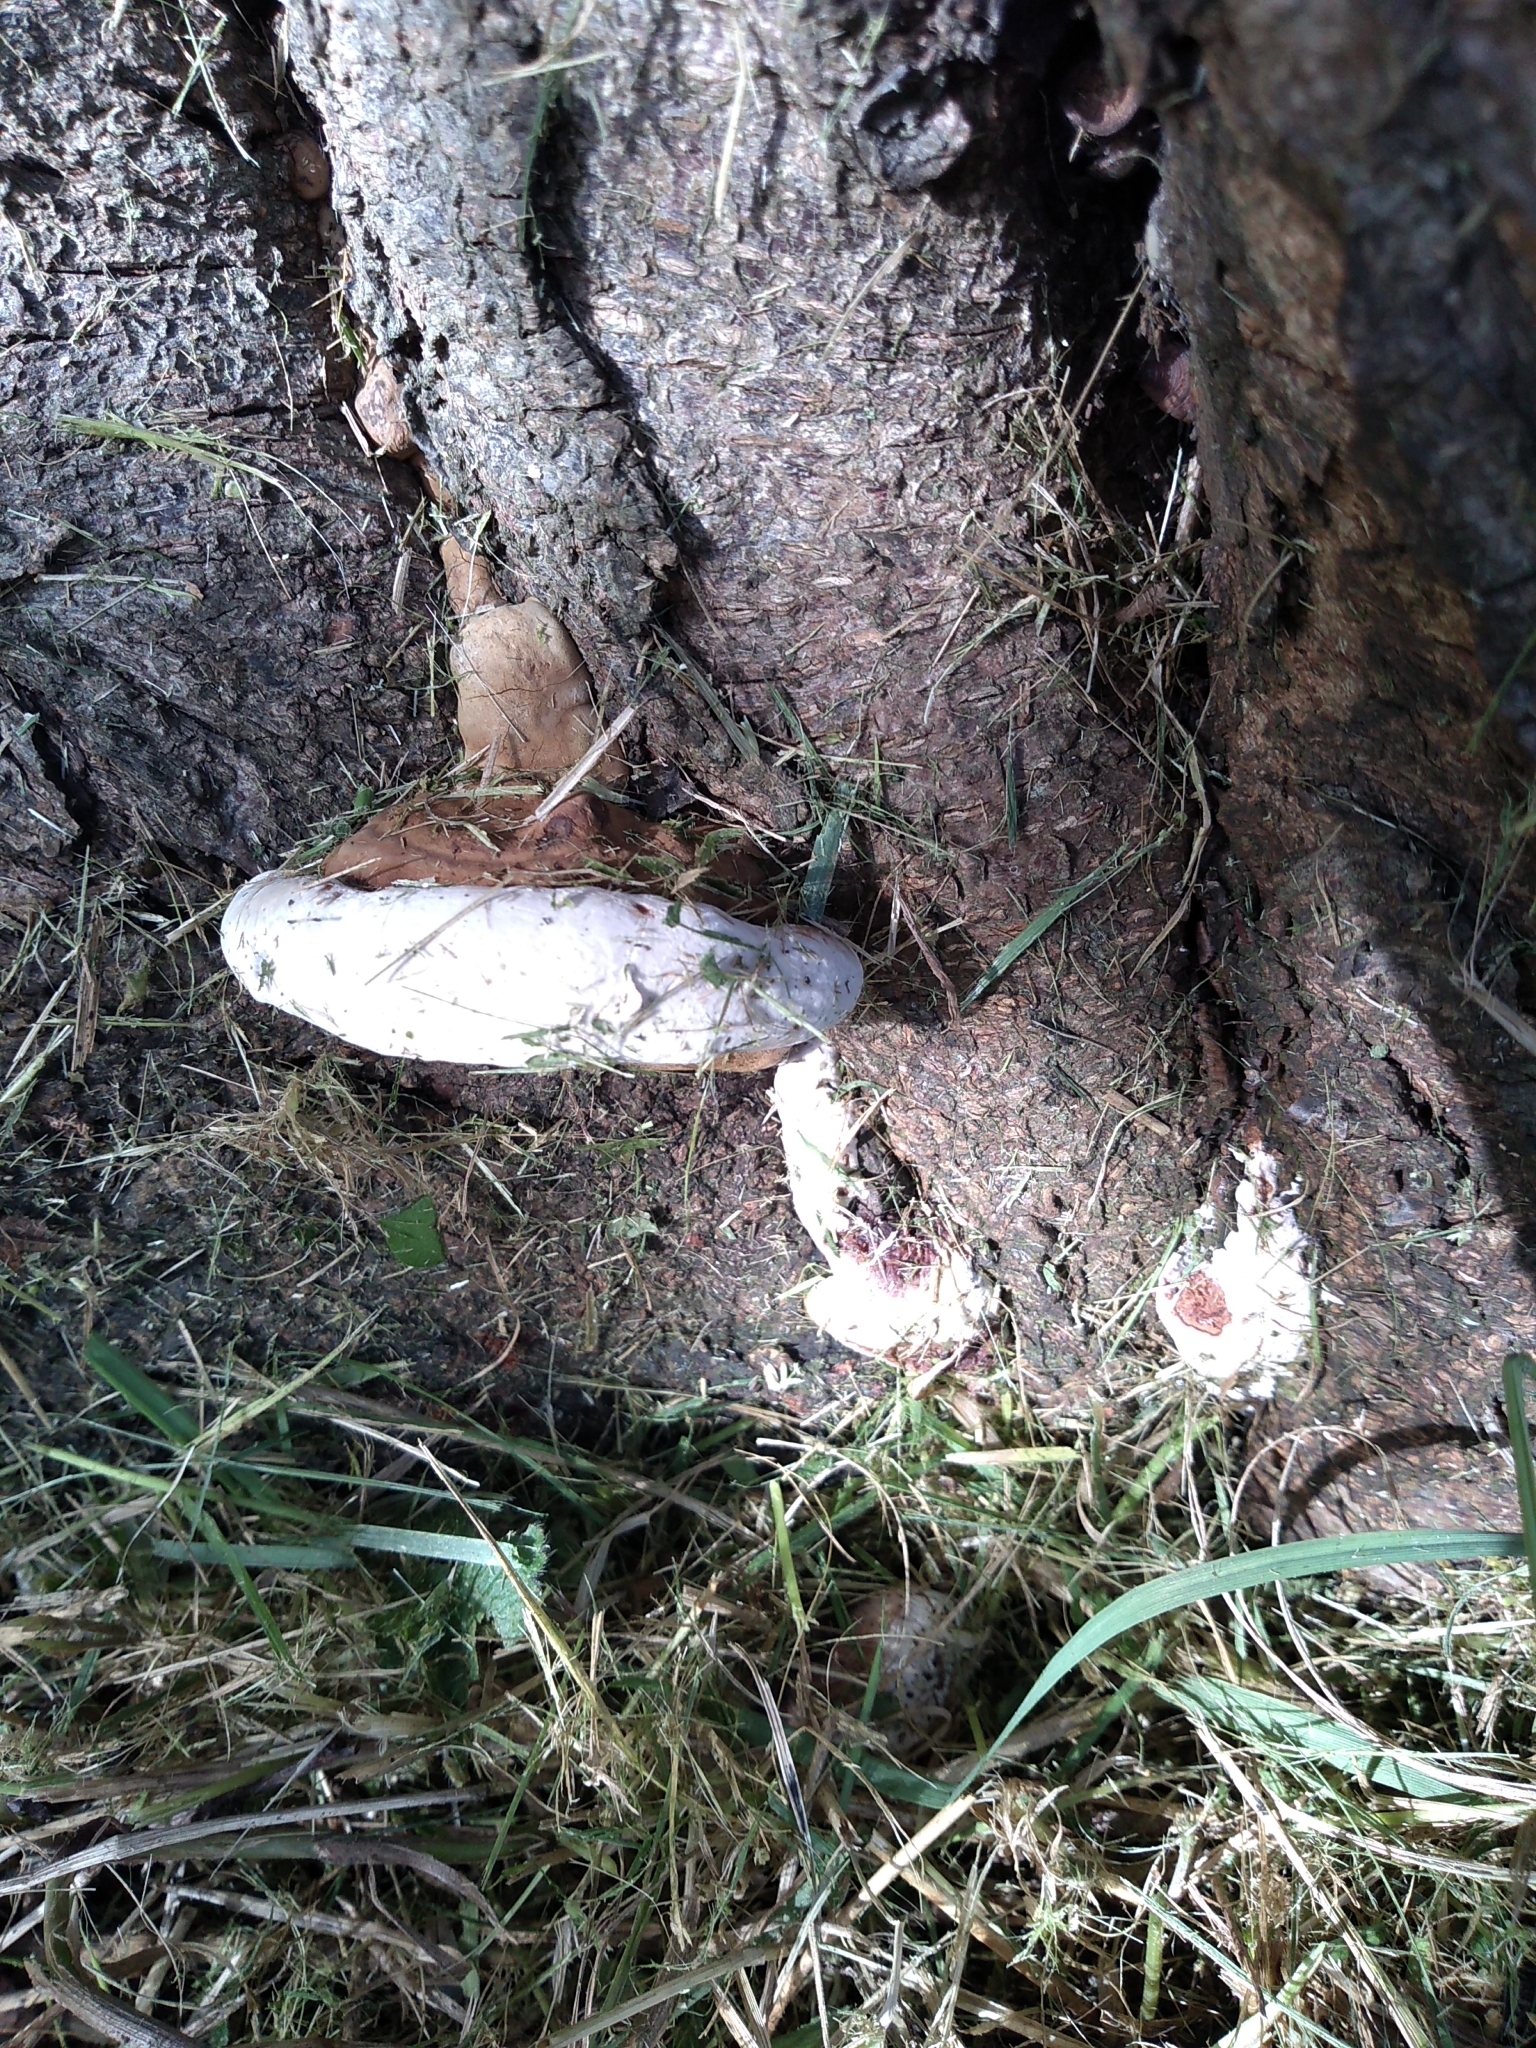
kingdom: Fungi
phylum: Basidiomycota
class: Agaricomycetes
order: Polyporales
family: Polyporaceae
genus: Ganoderma
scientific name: Ganoderma resinaceum
